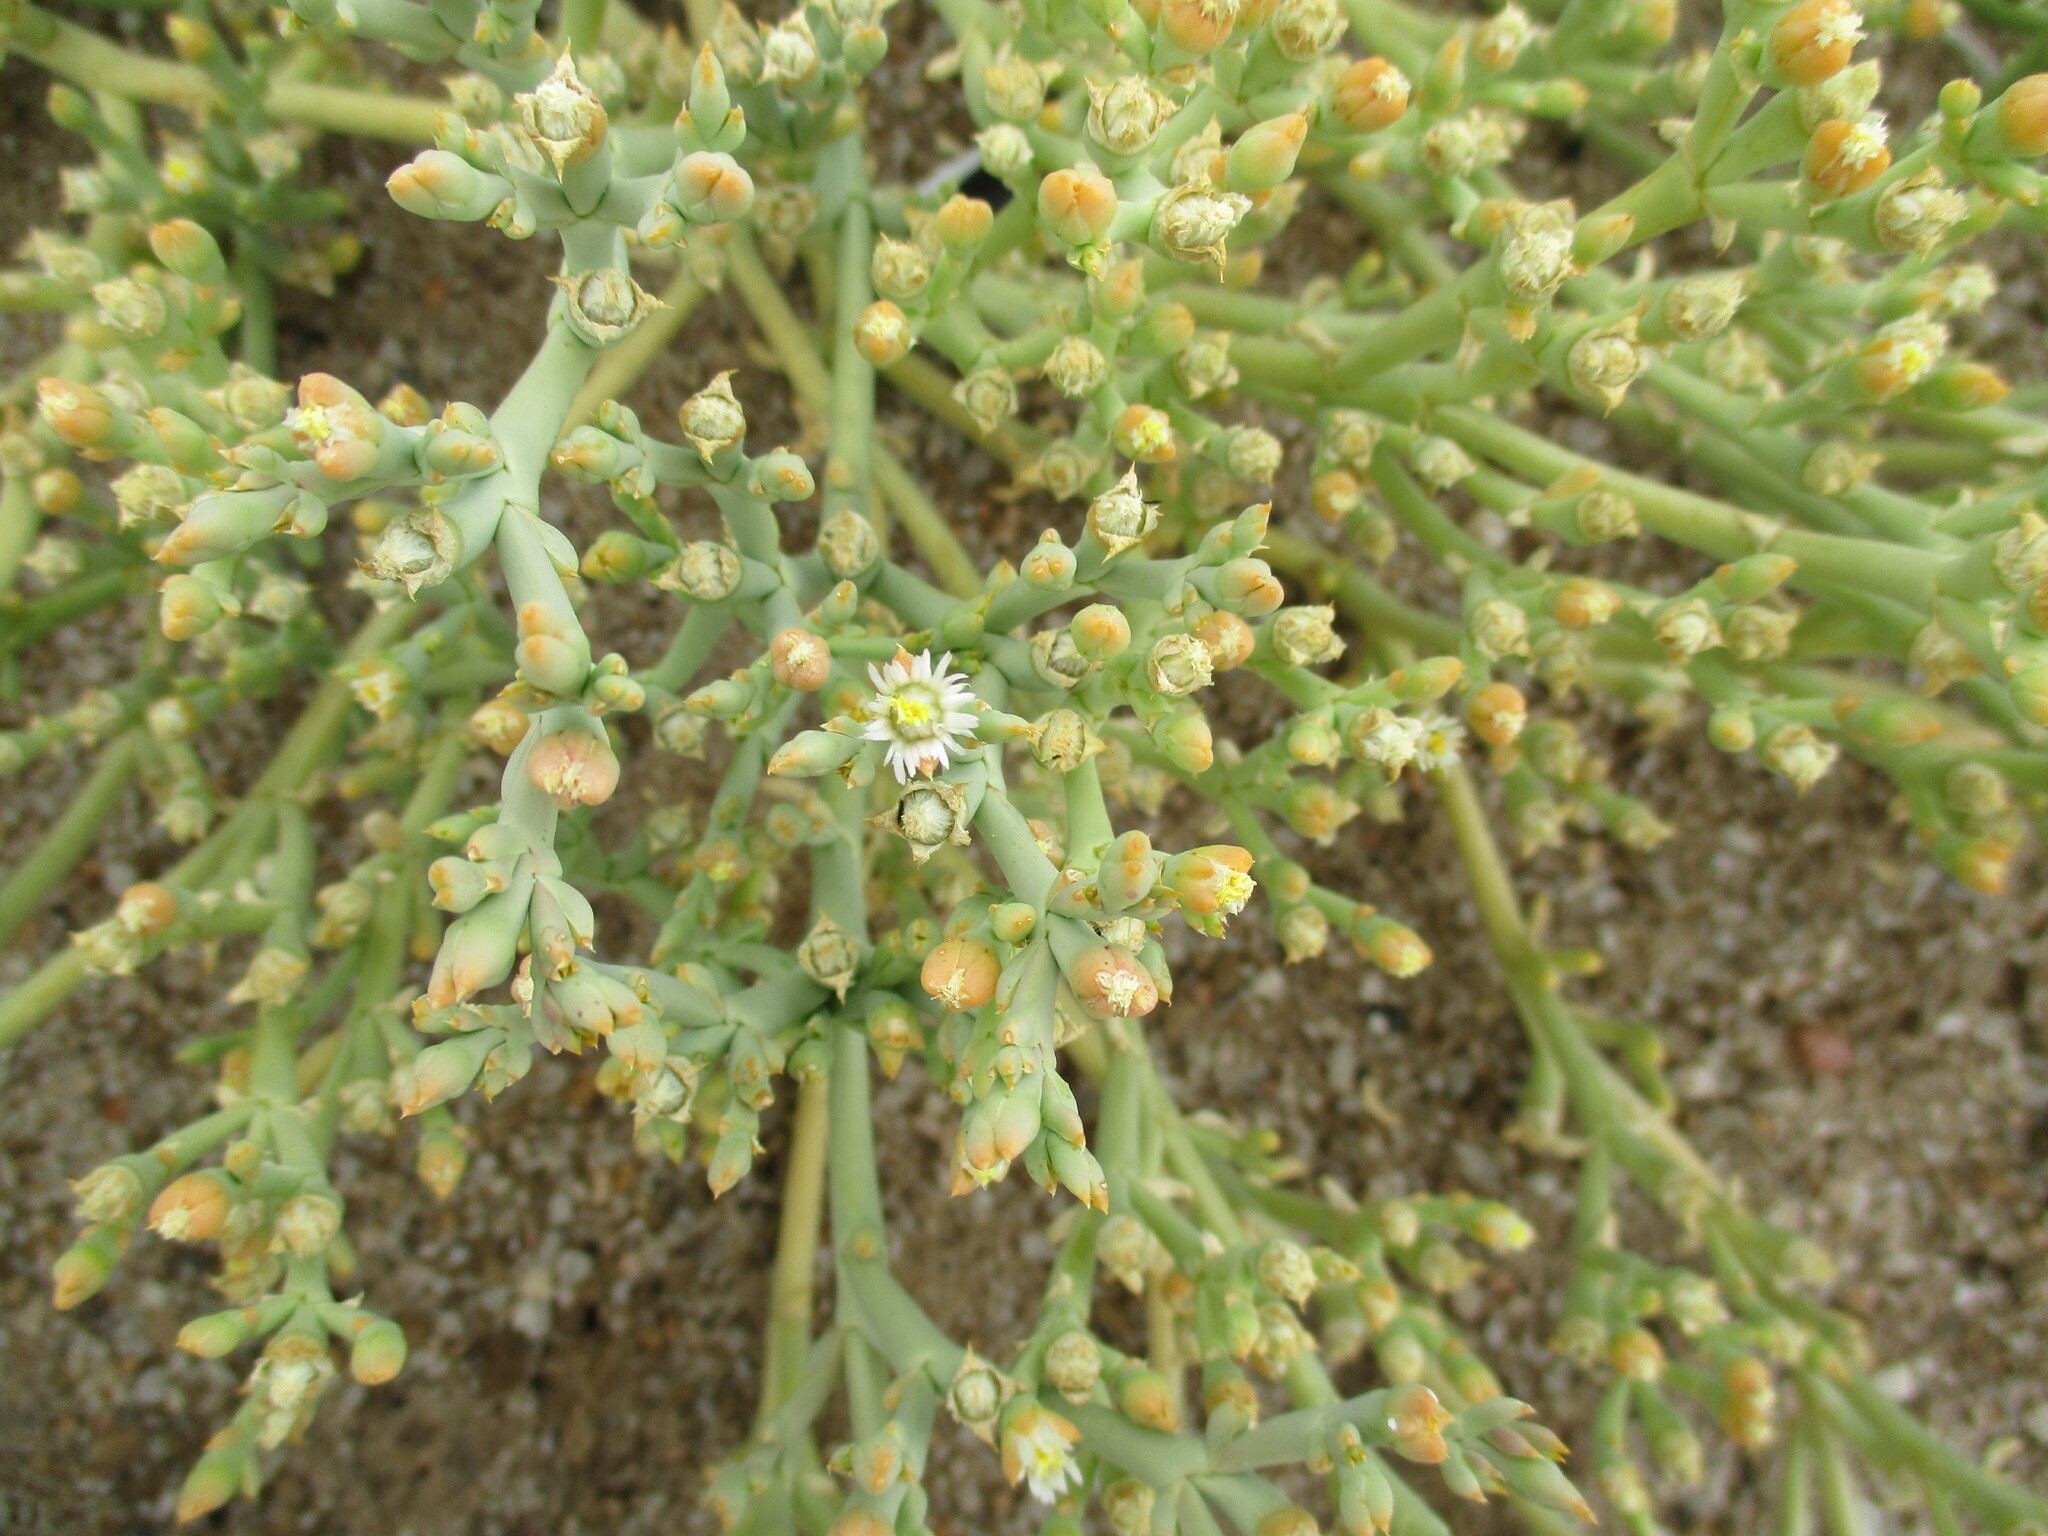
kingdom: Plantae
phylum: Tracheophyta
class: Magnoliopsida
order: Caryophyllales
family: Aizoaceae
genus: Mesembryanthemum
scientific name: Mesembryanthemum salicornioides
